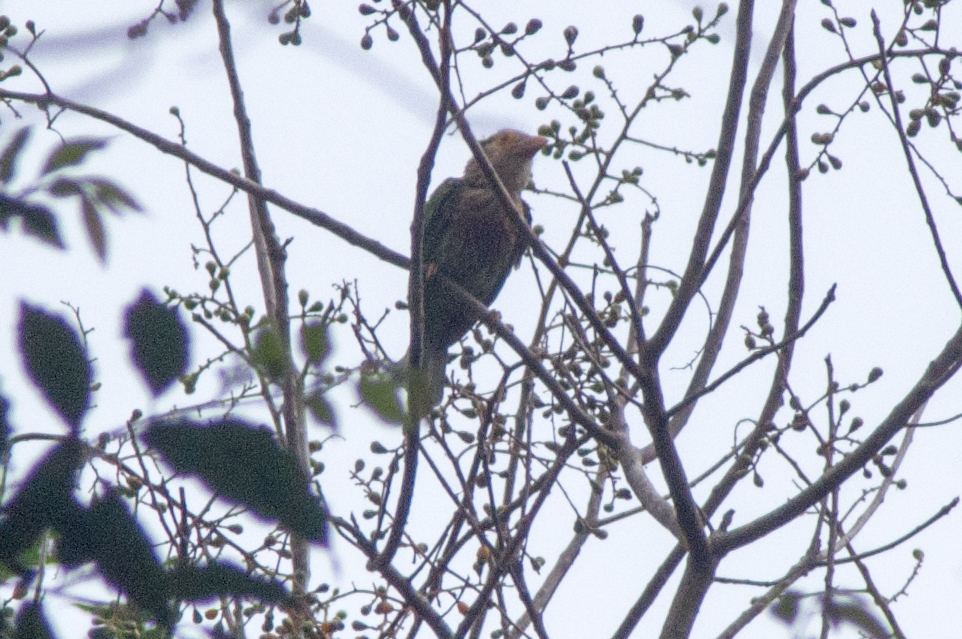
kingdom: Animalia
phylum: Chordata
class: Aves
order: Piciformes
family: Megalaimidae
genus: Psilopogon
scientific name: Psilopogon lineatus
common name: Lineated barbet
